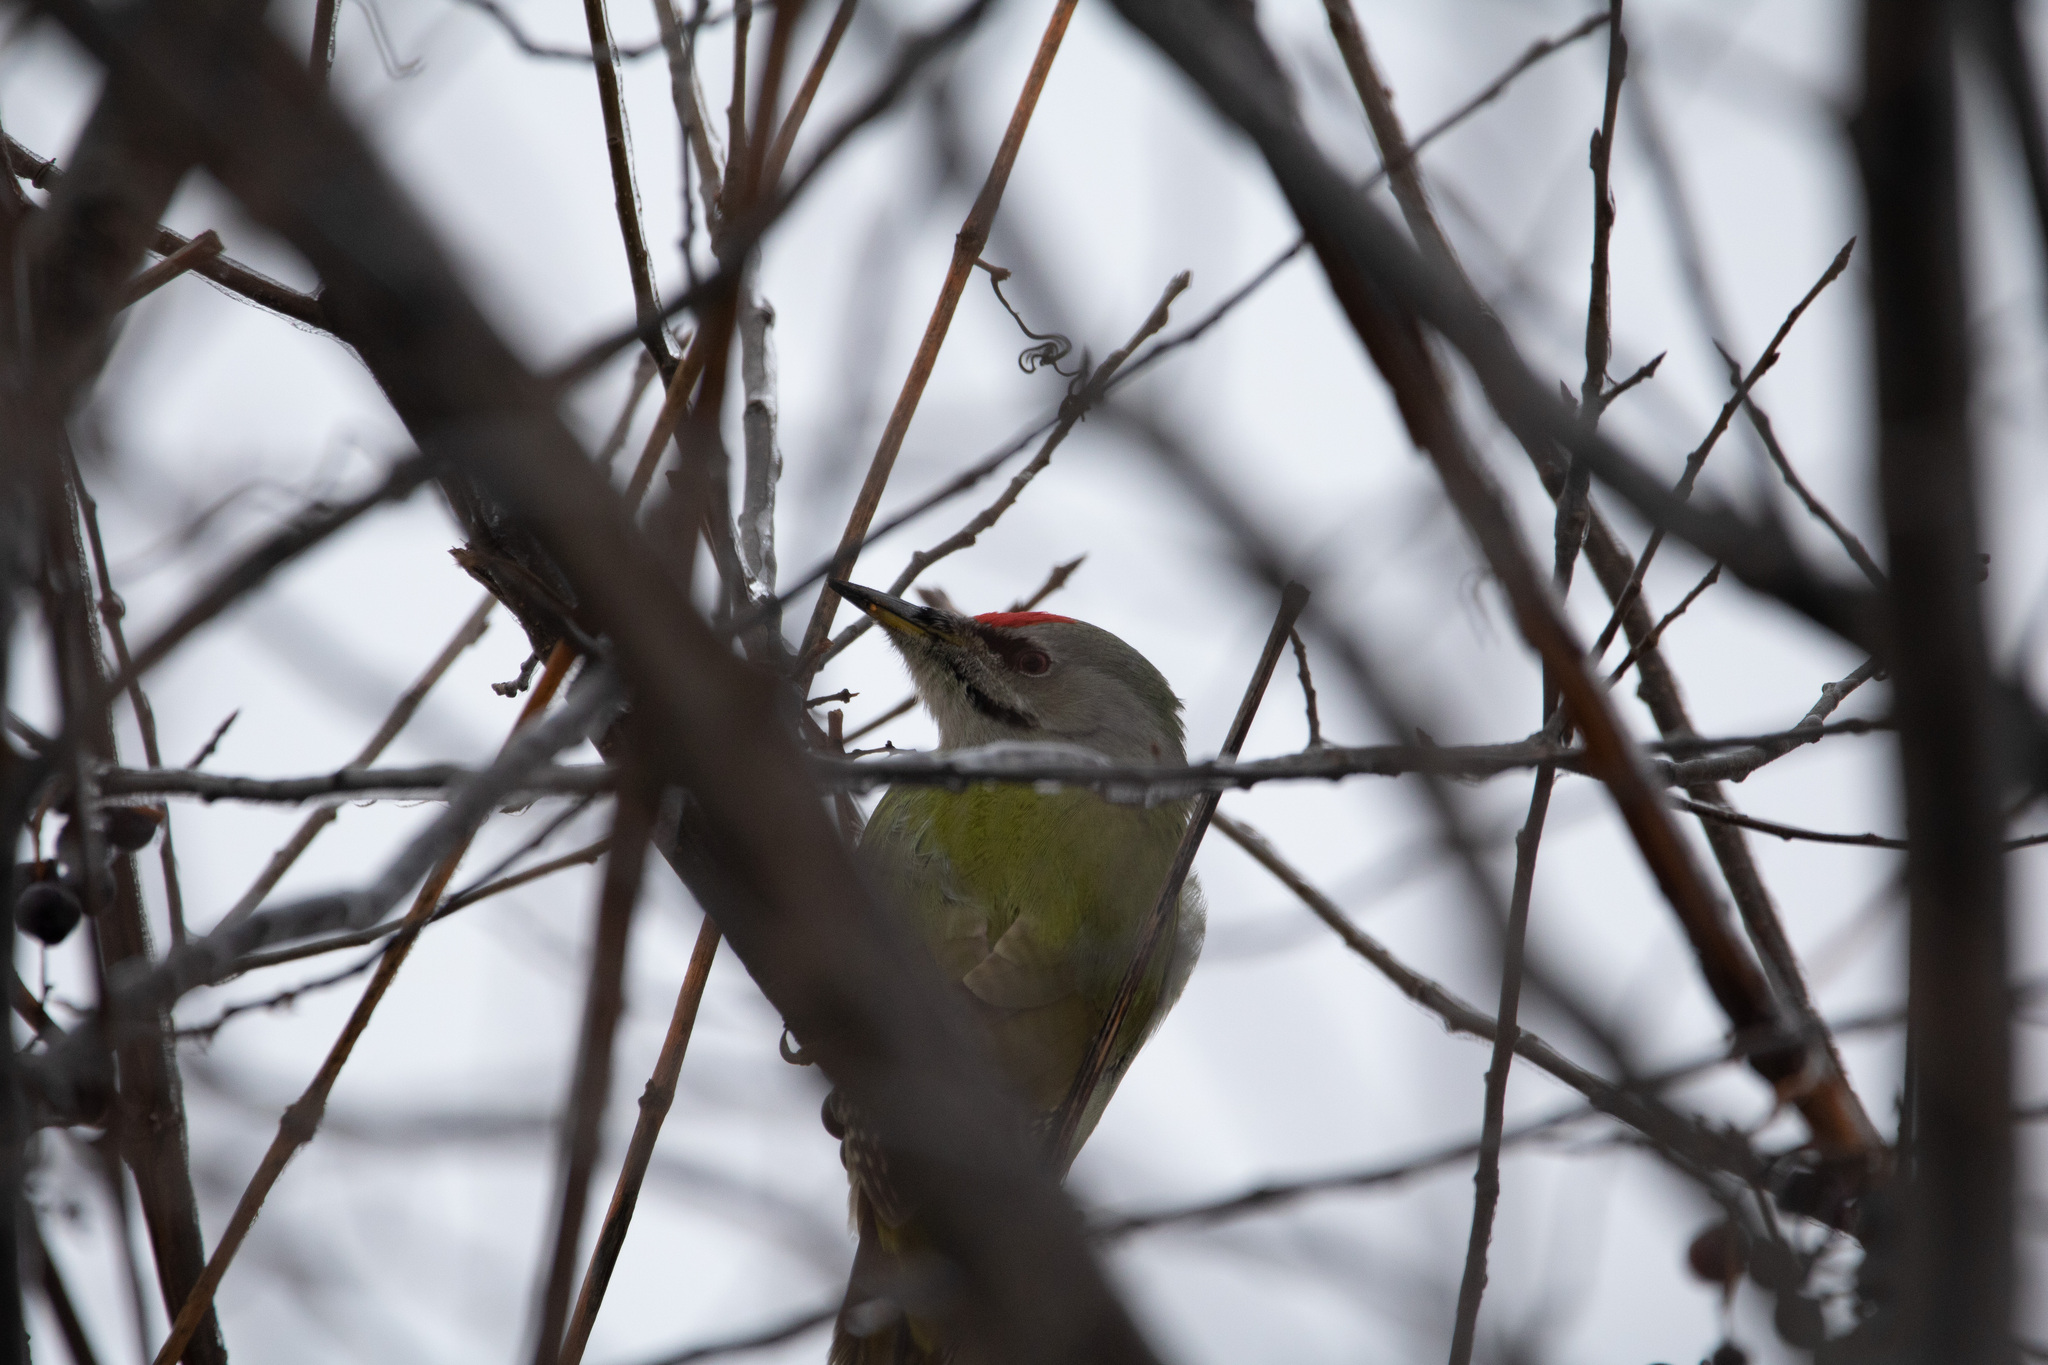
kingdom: Animalia
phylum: Chordata
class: Aves
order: Piciformes
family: Picidae
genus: Picus
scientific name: Picus canus
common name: Grey-headed woodpecker
